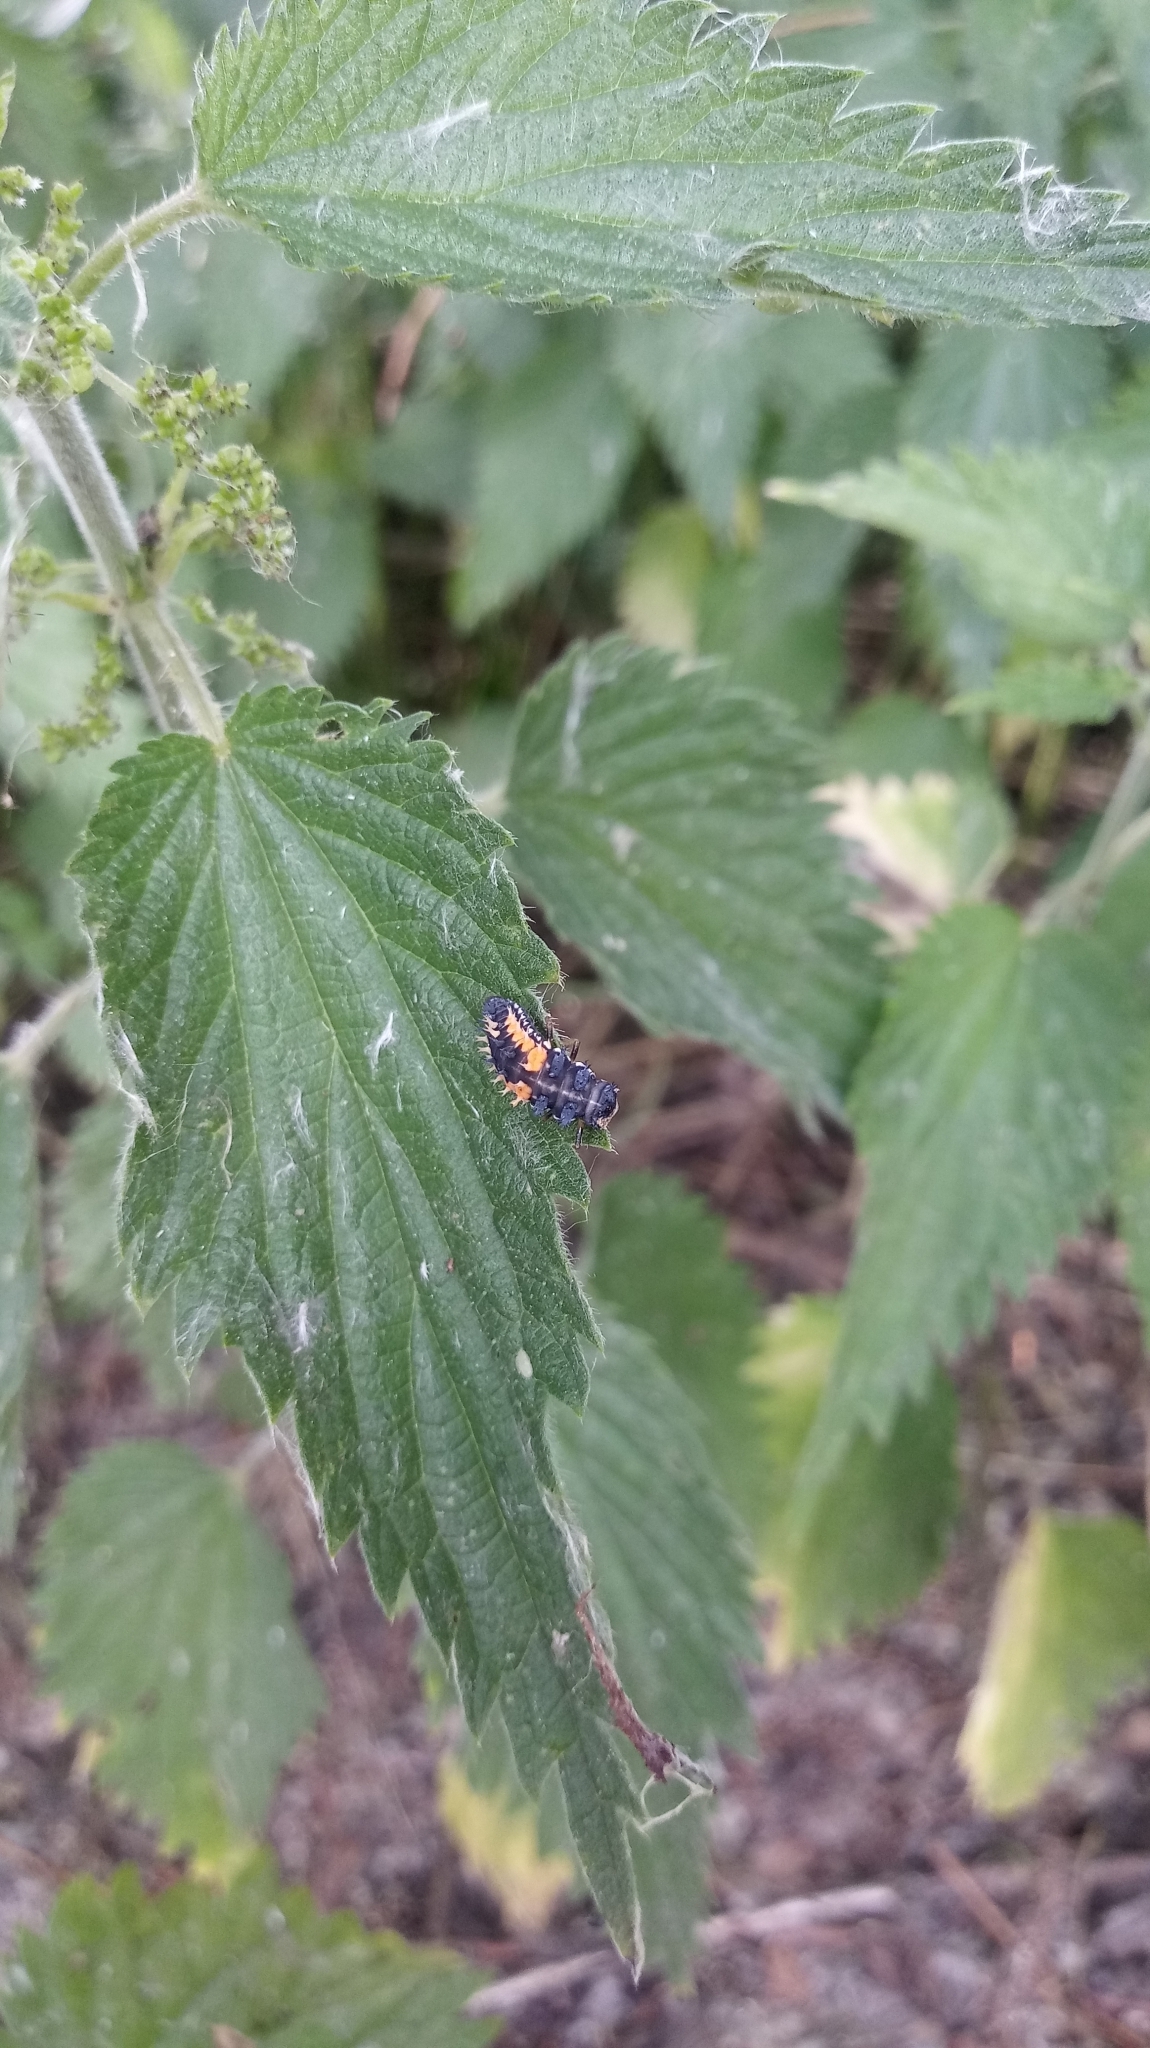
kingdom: Animalia
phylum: Arthropoda
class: Insecta
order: Coleoptera
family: Coccinellidae
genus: Harmonia
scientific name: Harmonia axyridis
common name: Harlequin ladybird
